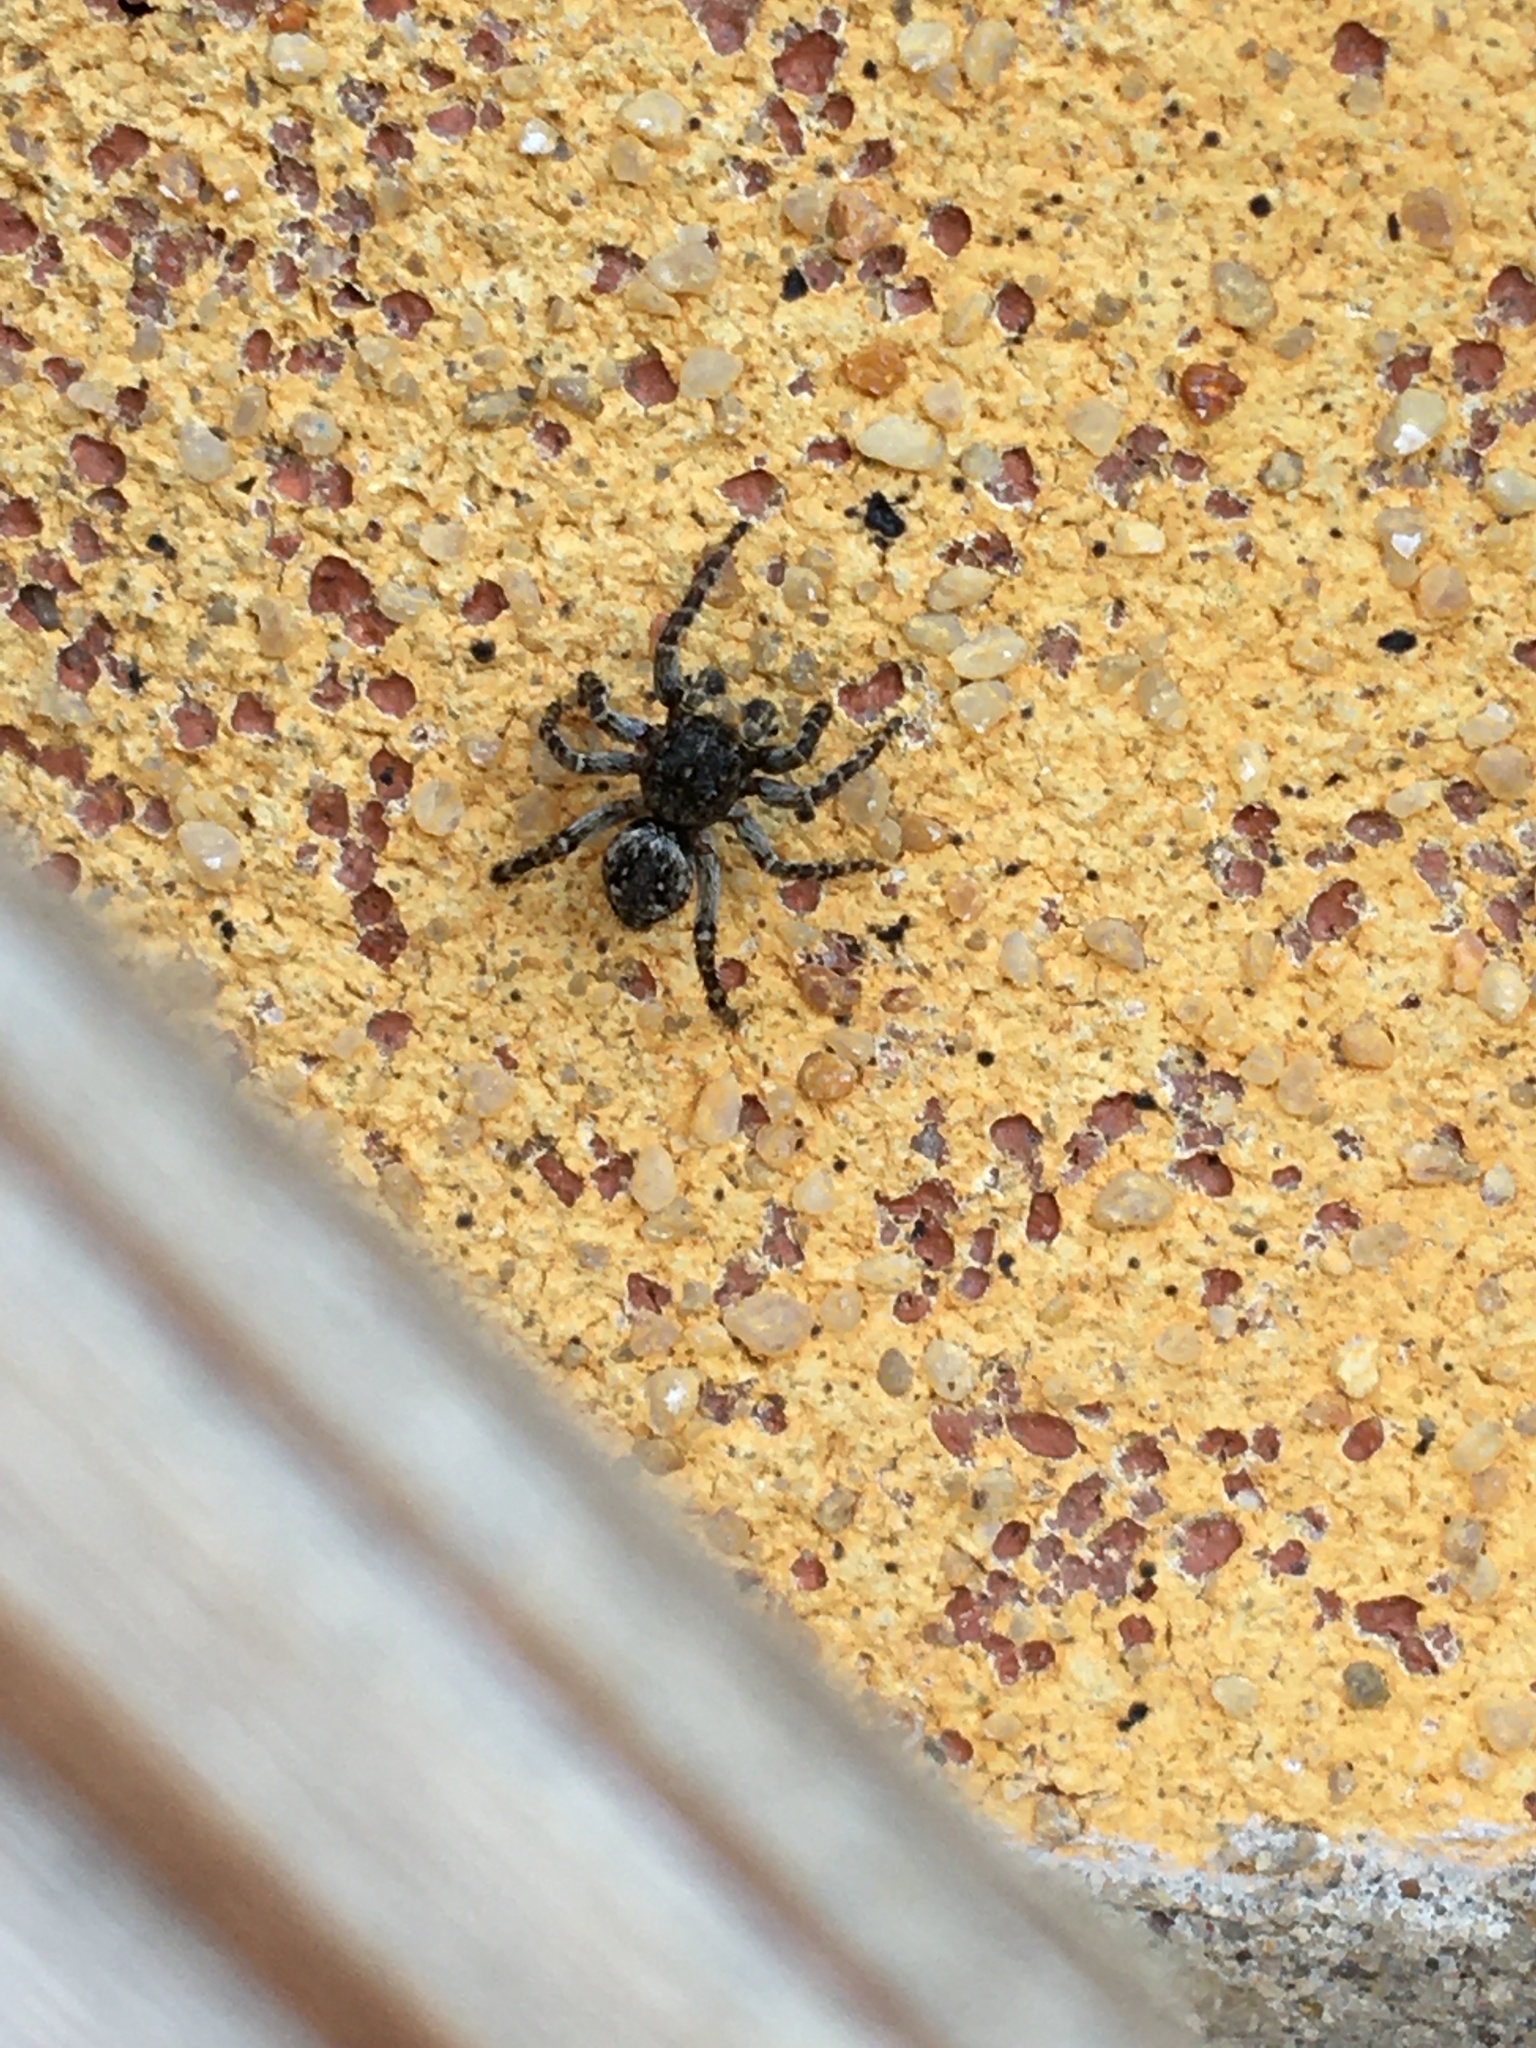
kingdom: Animalia
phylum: Arthropoda
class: Arachnida
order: Araneae
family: Salticidae
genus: Attulus
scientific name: Attulus pubescens
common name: Jumping spider
